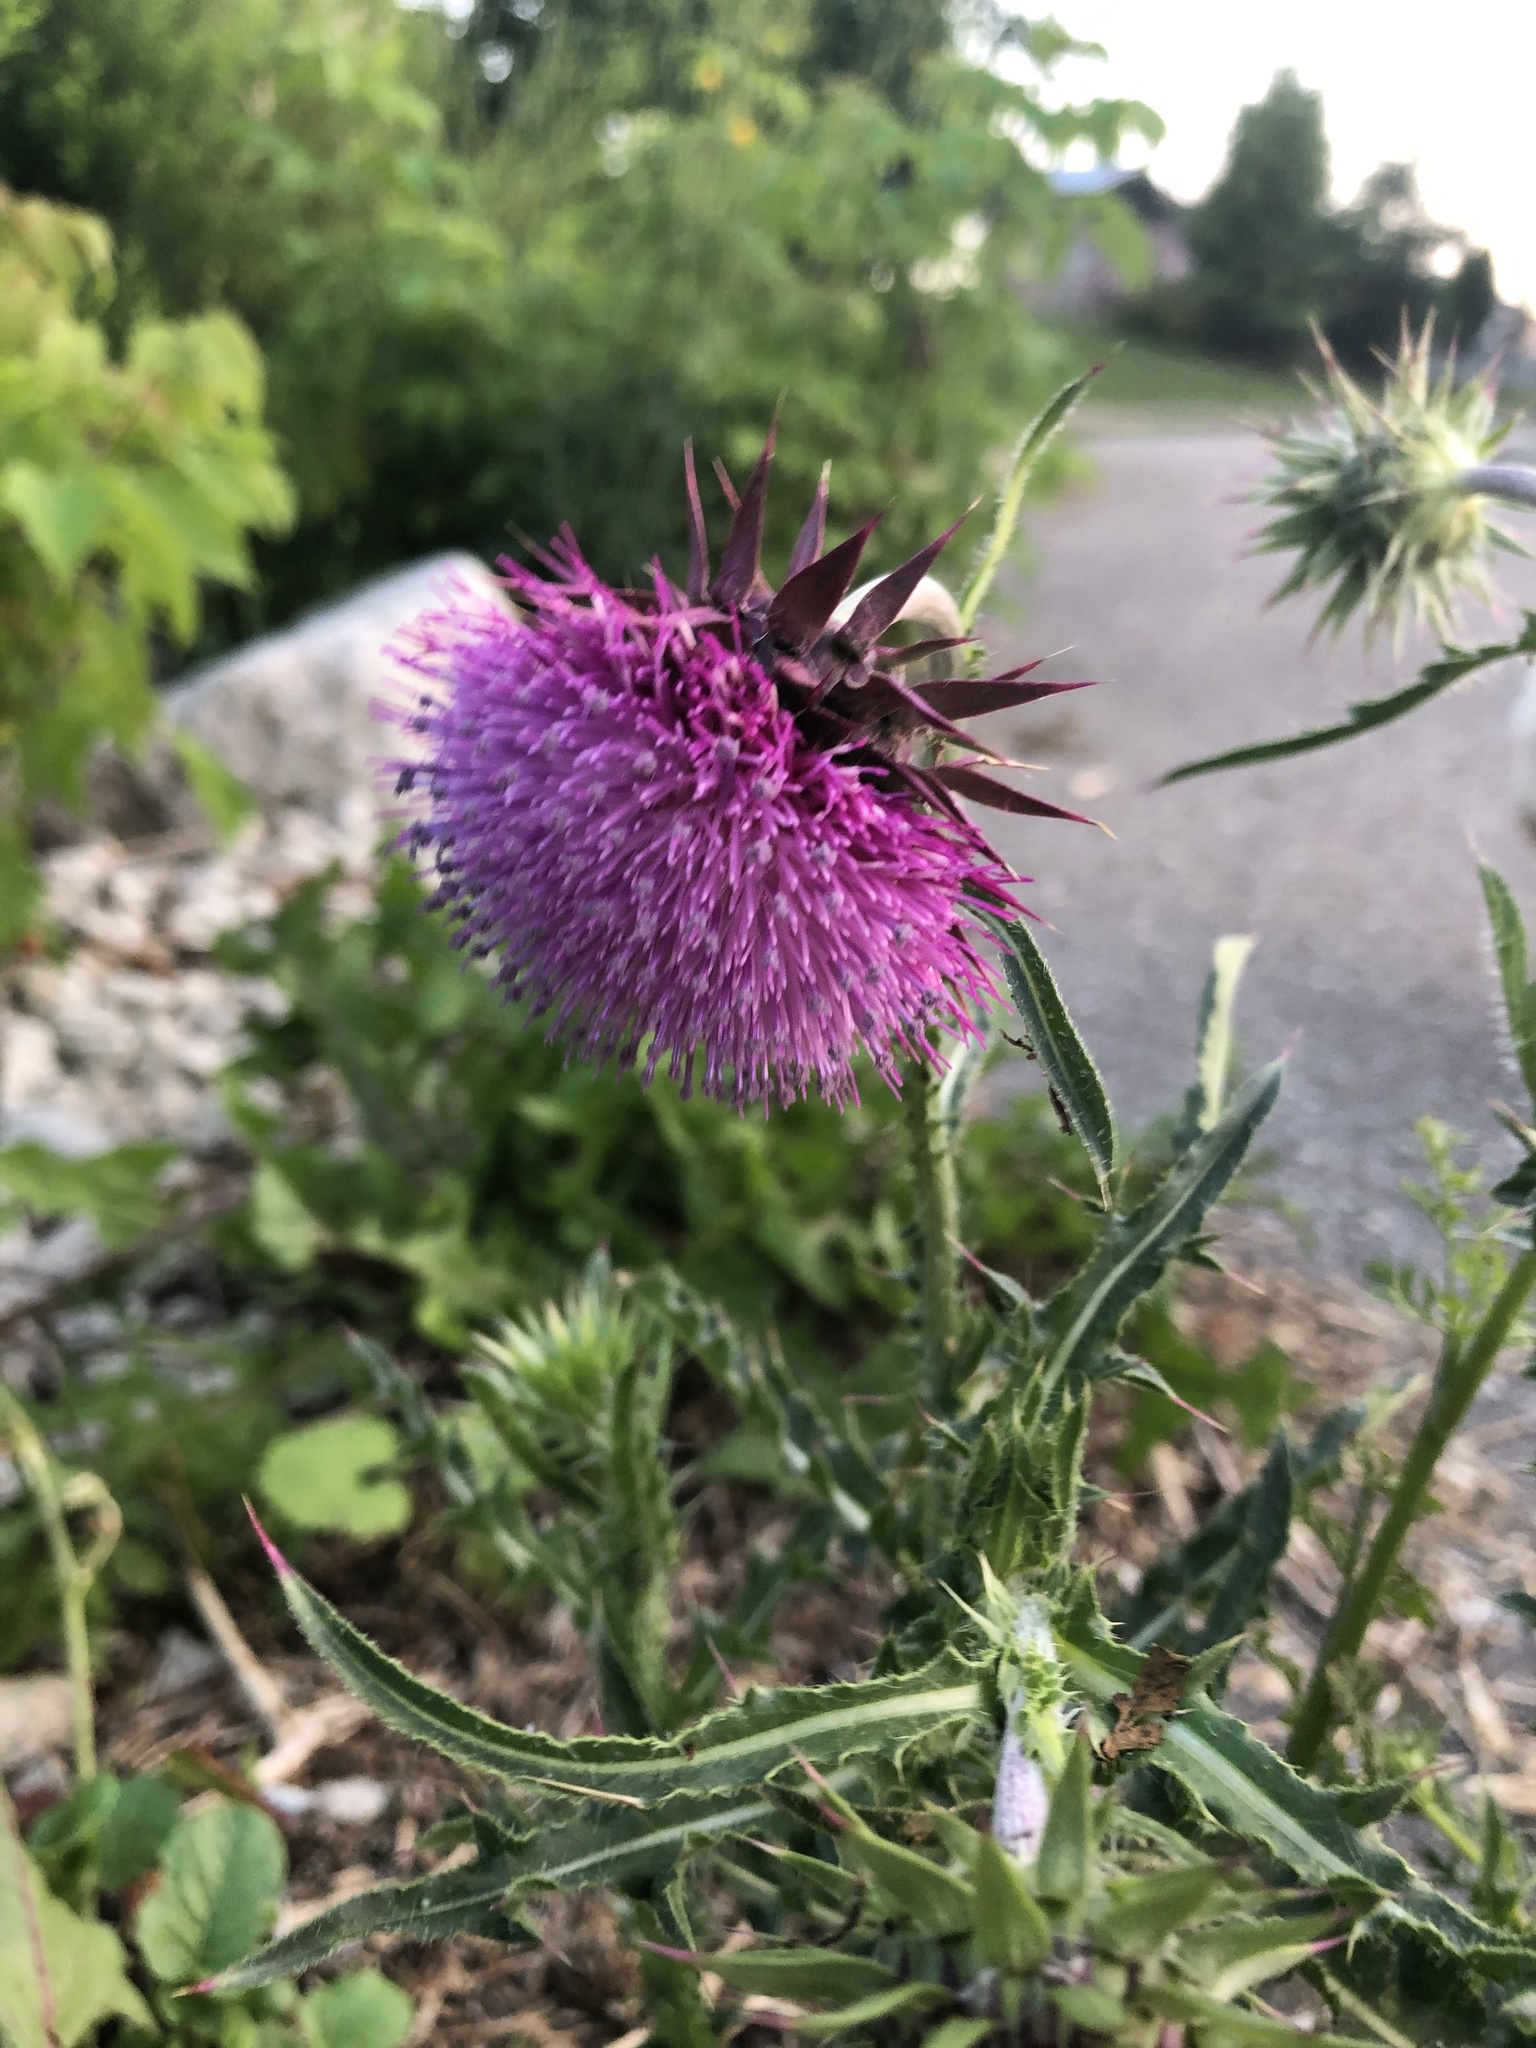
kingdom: Plantae
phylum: Tracheophyta
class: Magnoliopsida
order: Asterales
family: Asteraceae
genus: Carduus
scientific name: Carduus nutans
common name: Musk thistle
